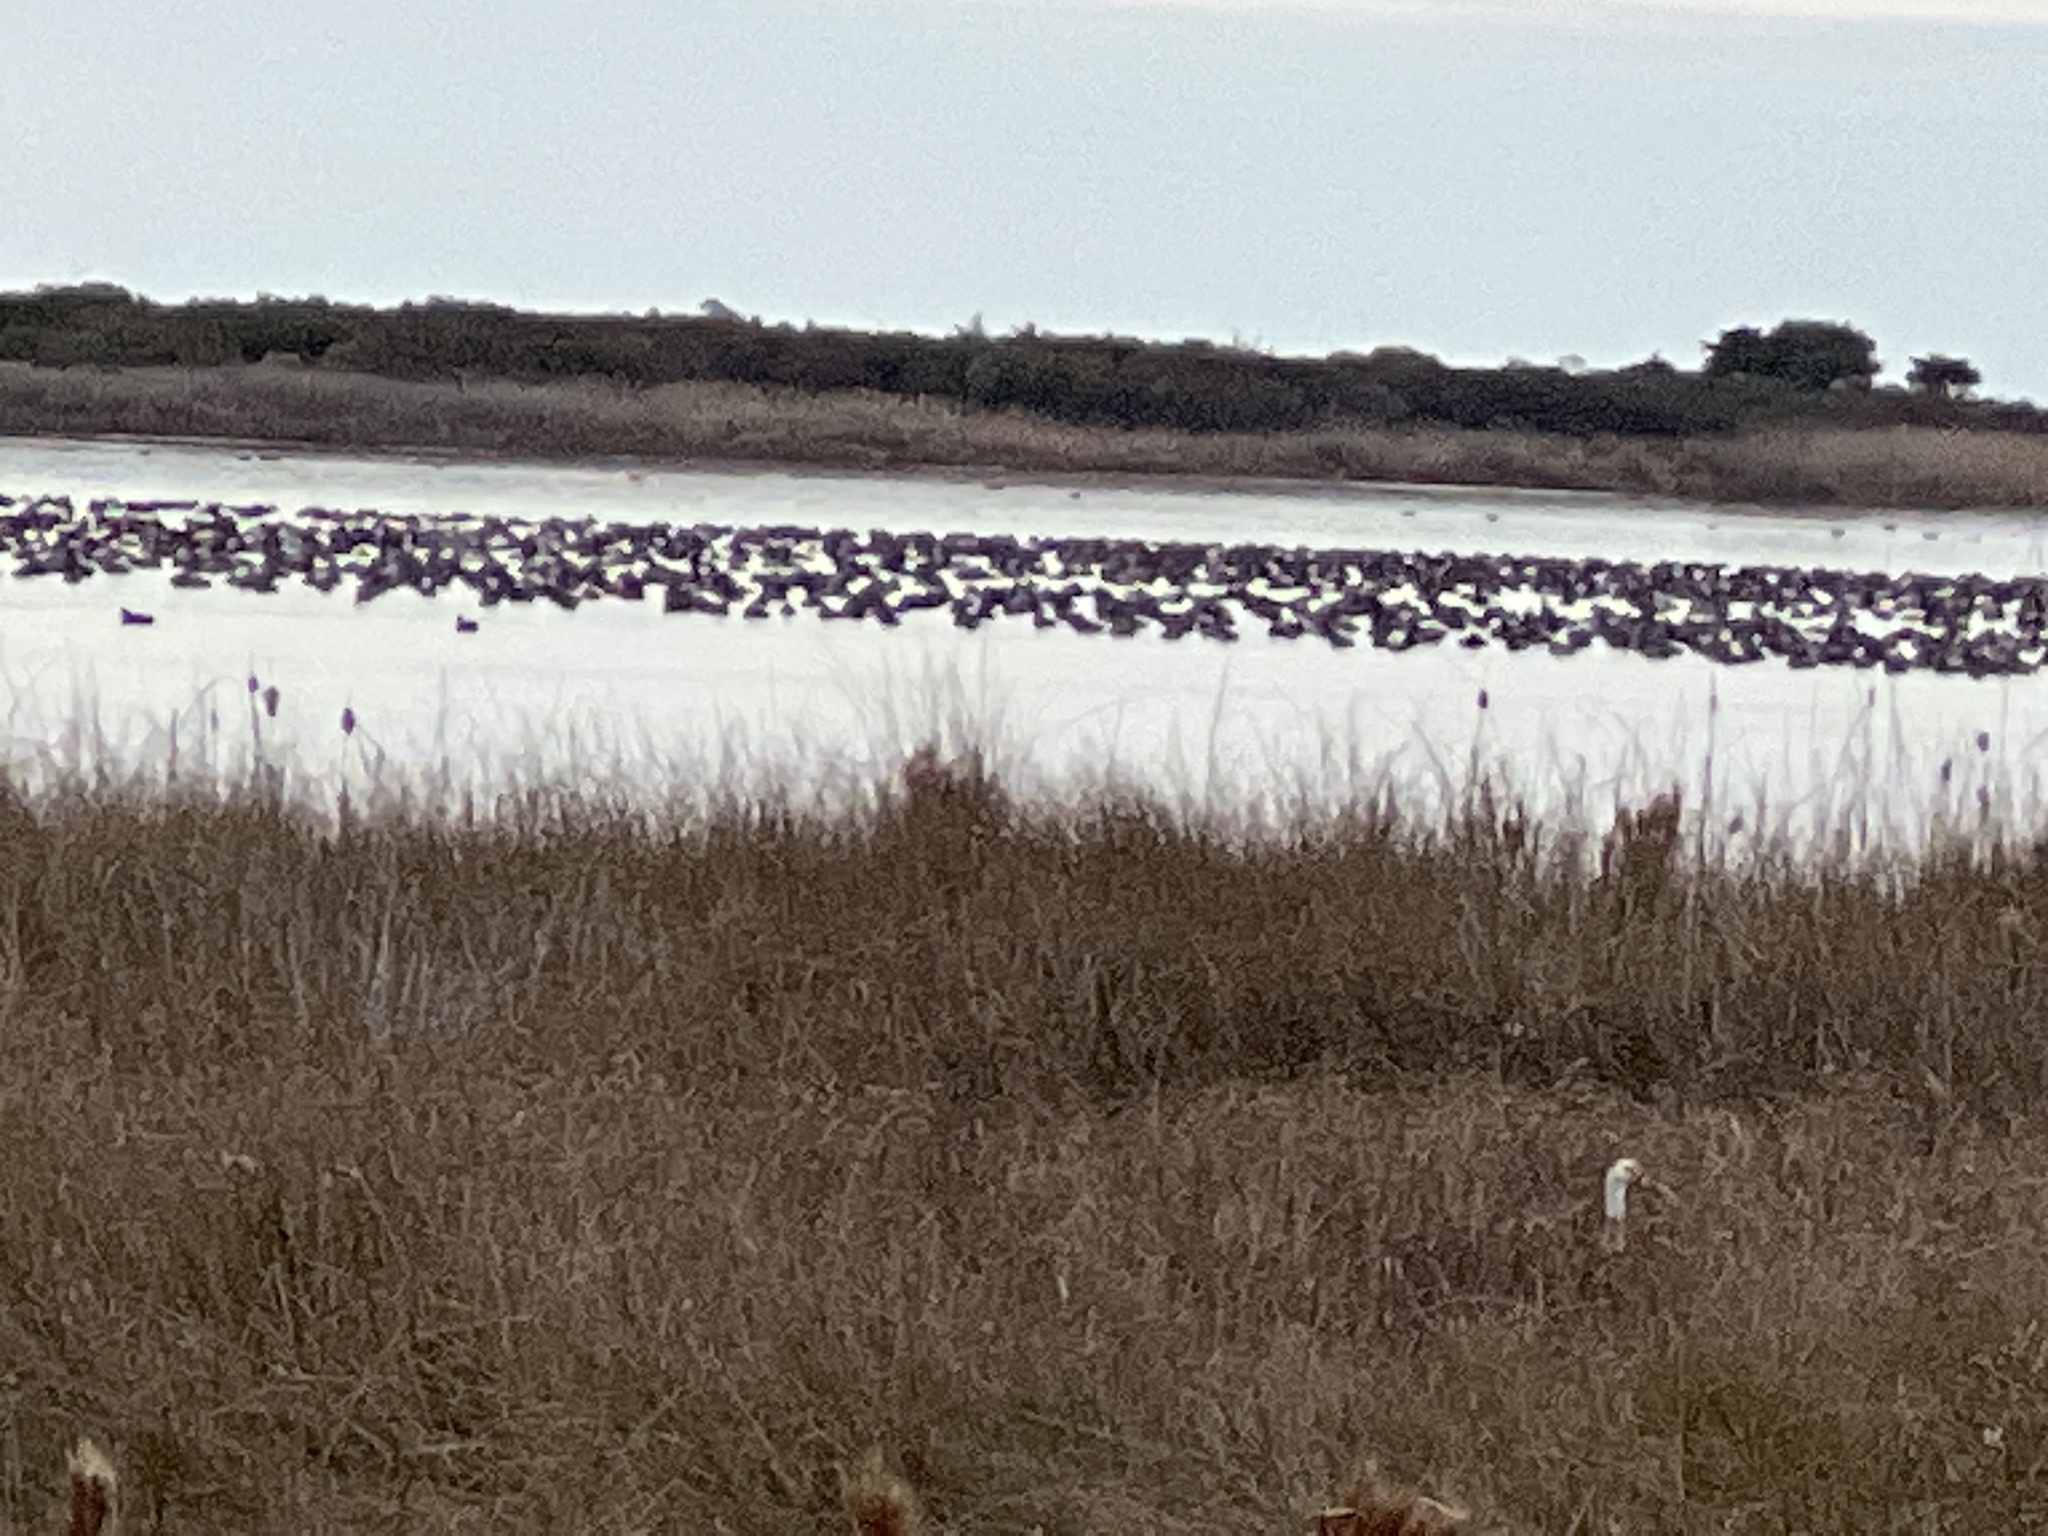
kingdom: Animalia
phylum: Chordata
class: Aves
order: Anseriformes
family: Anatidae
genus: Aythya
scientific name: Aythya americana
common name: Redhead
